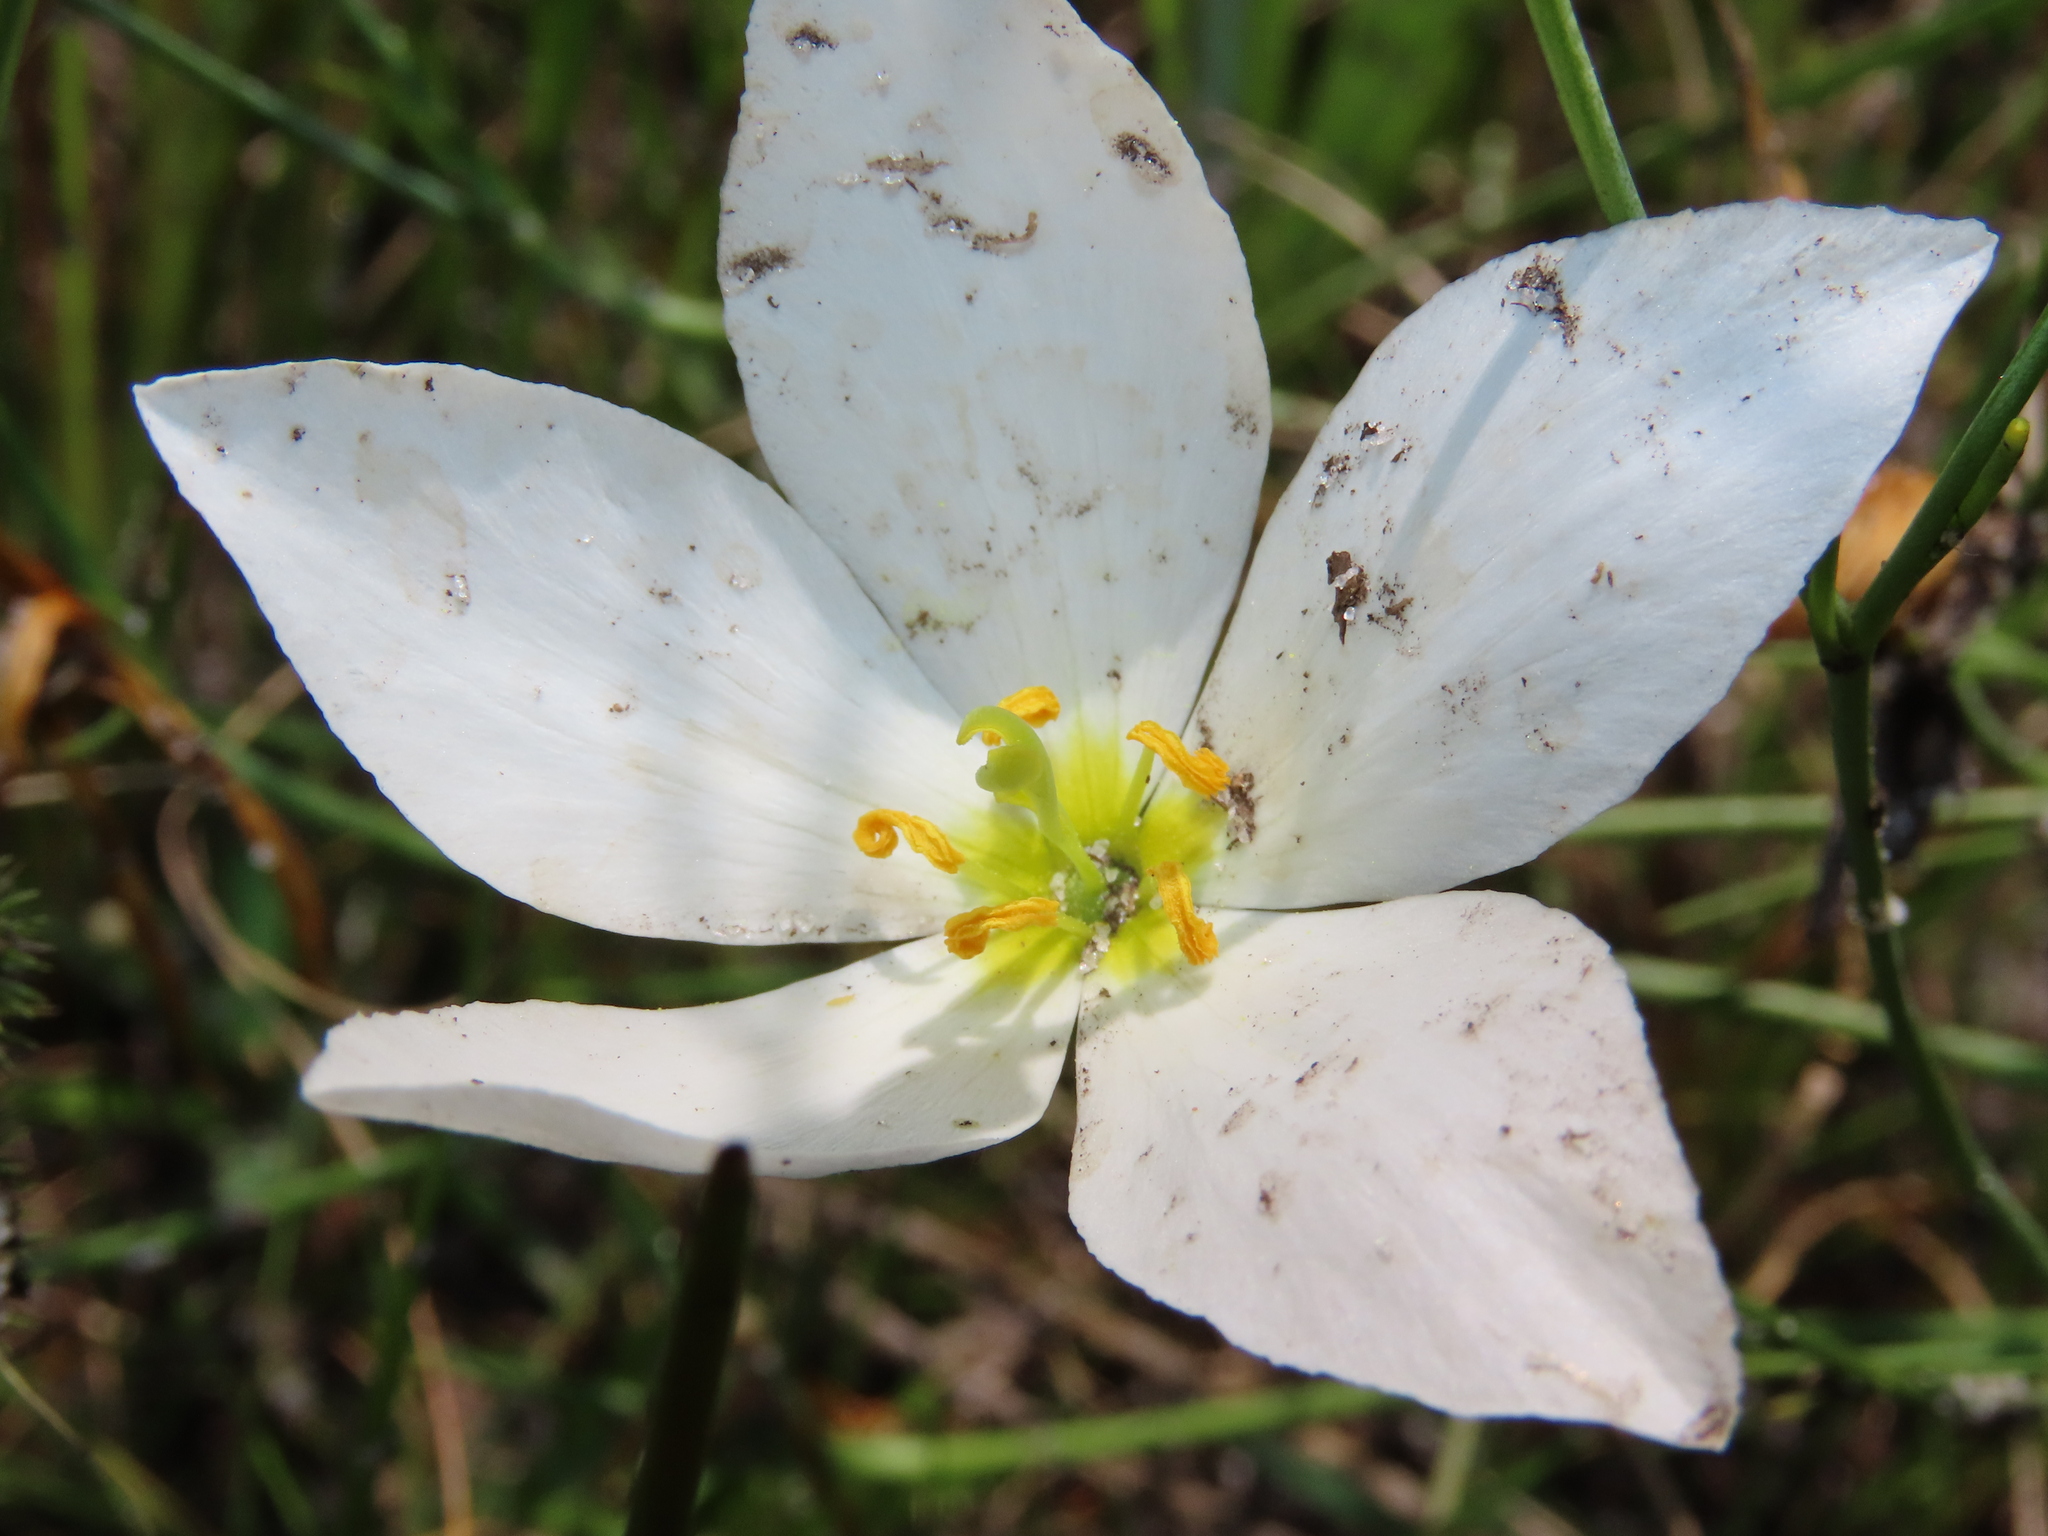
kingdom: Plantae
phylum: Tracheophyta
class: Magnoliopsida
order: Gentianales
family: Gentianaceae
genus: Sabatia
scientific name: Sabatia grandiflora
